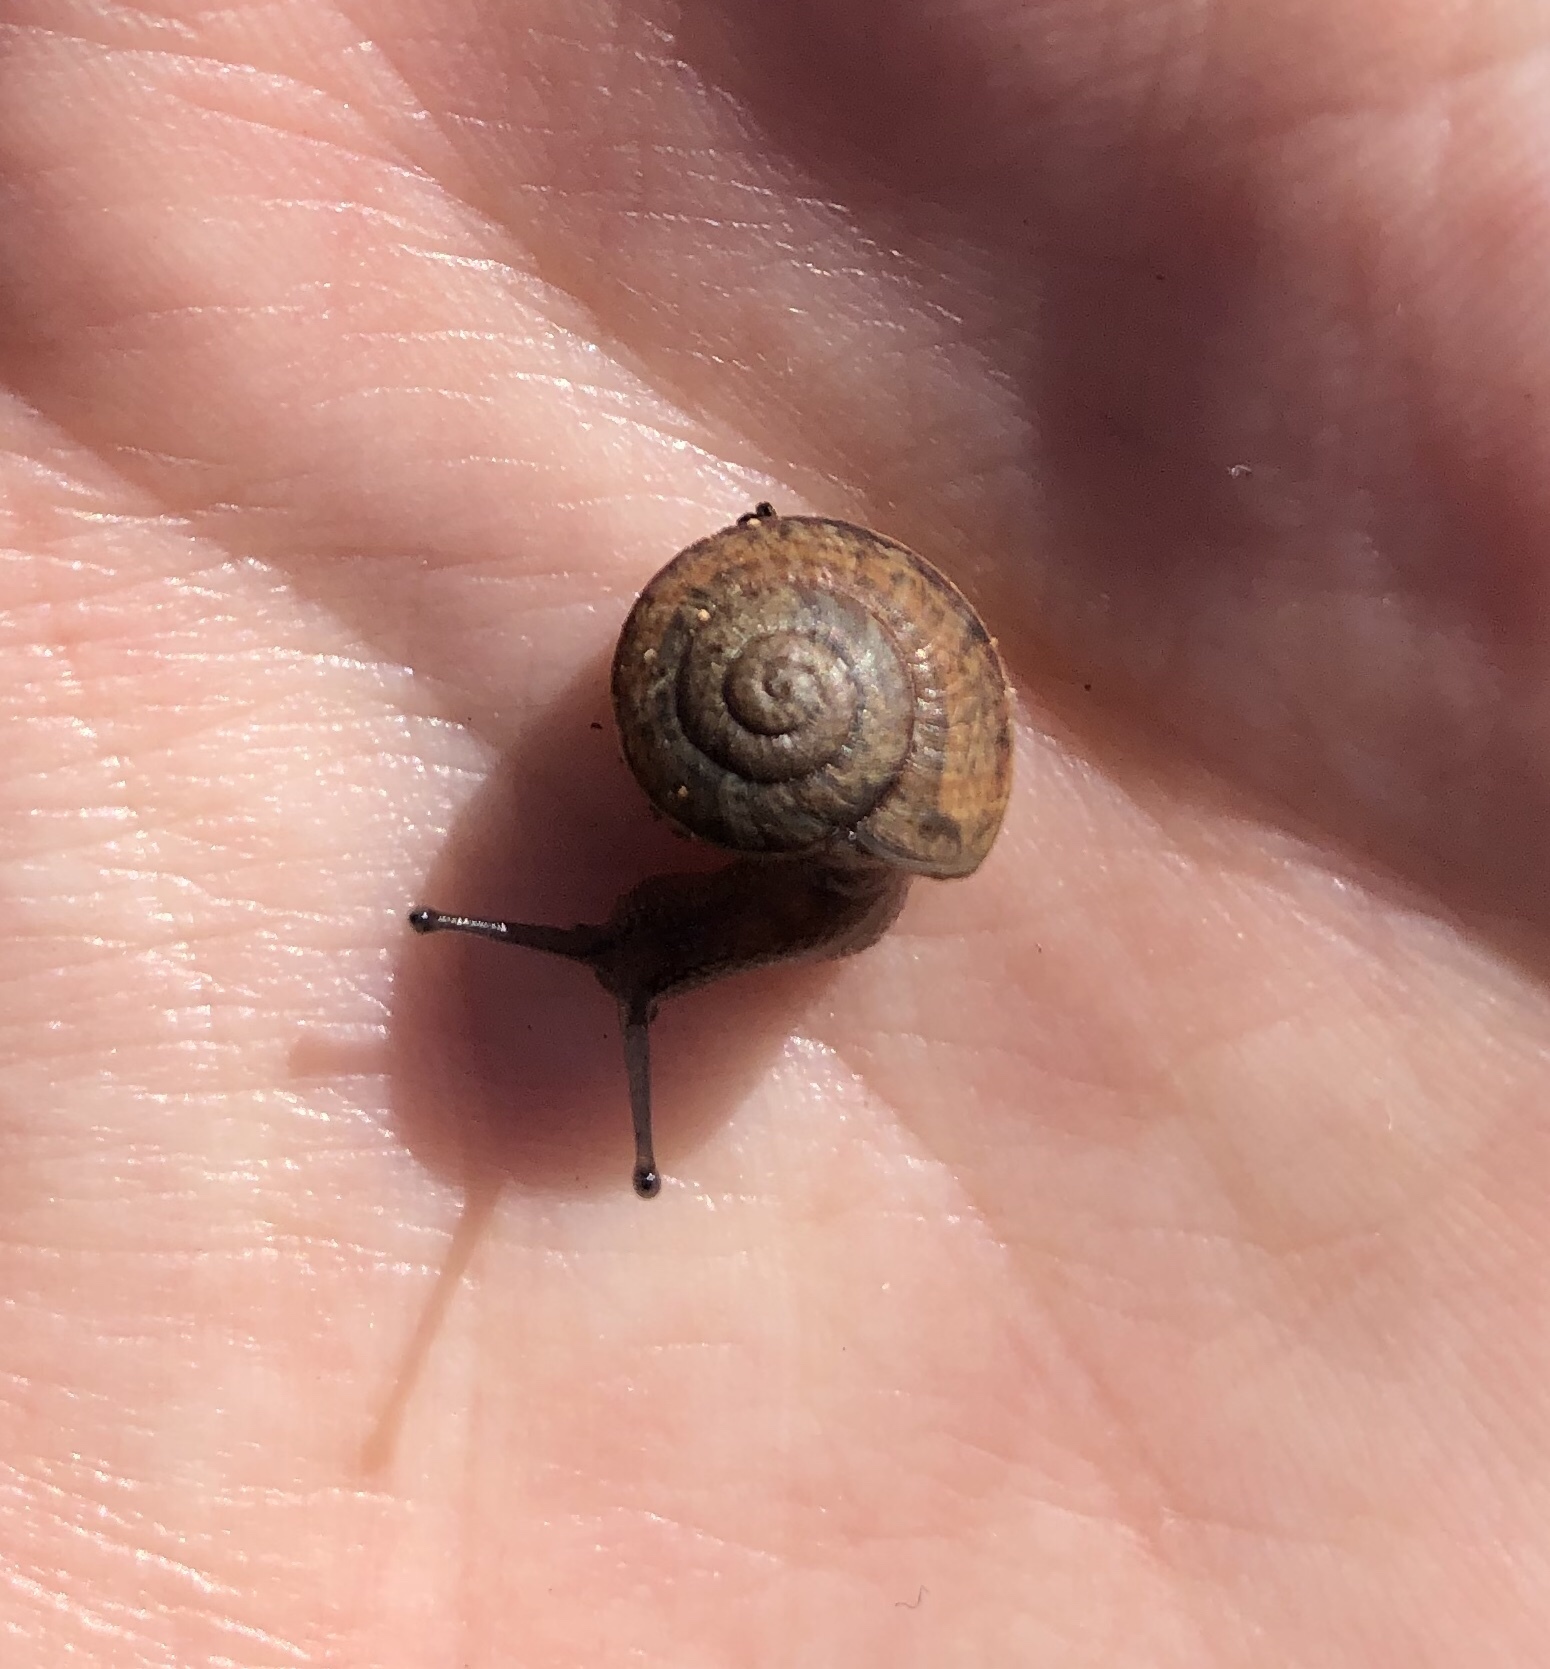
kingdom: Animalia
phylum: Mollusca
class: Gastropoda
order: Stylommatophora
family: Xanthonychidae
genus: Xerarionta
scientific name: Xerarionta stearnsiana
